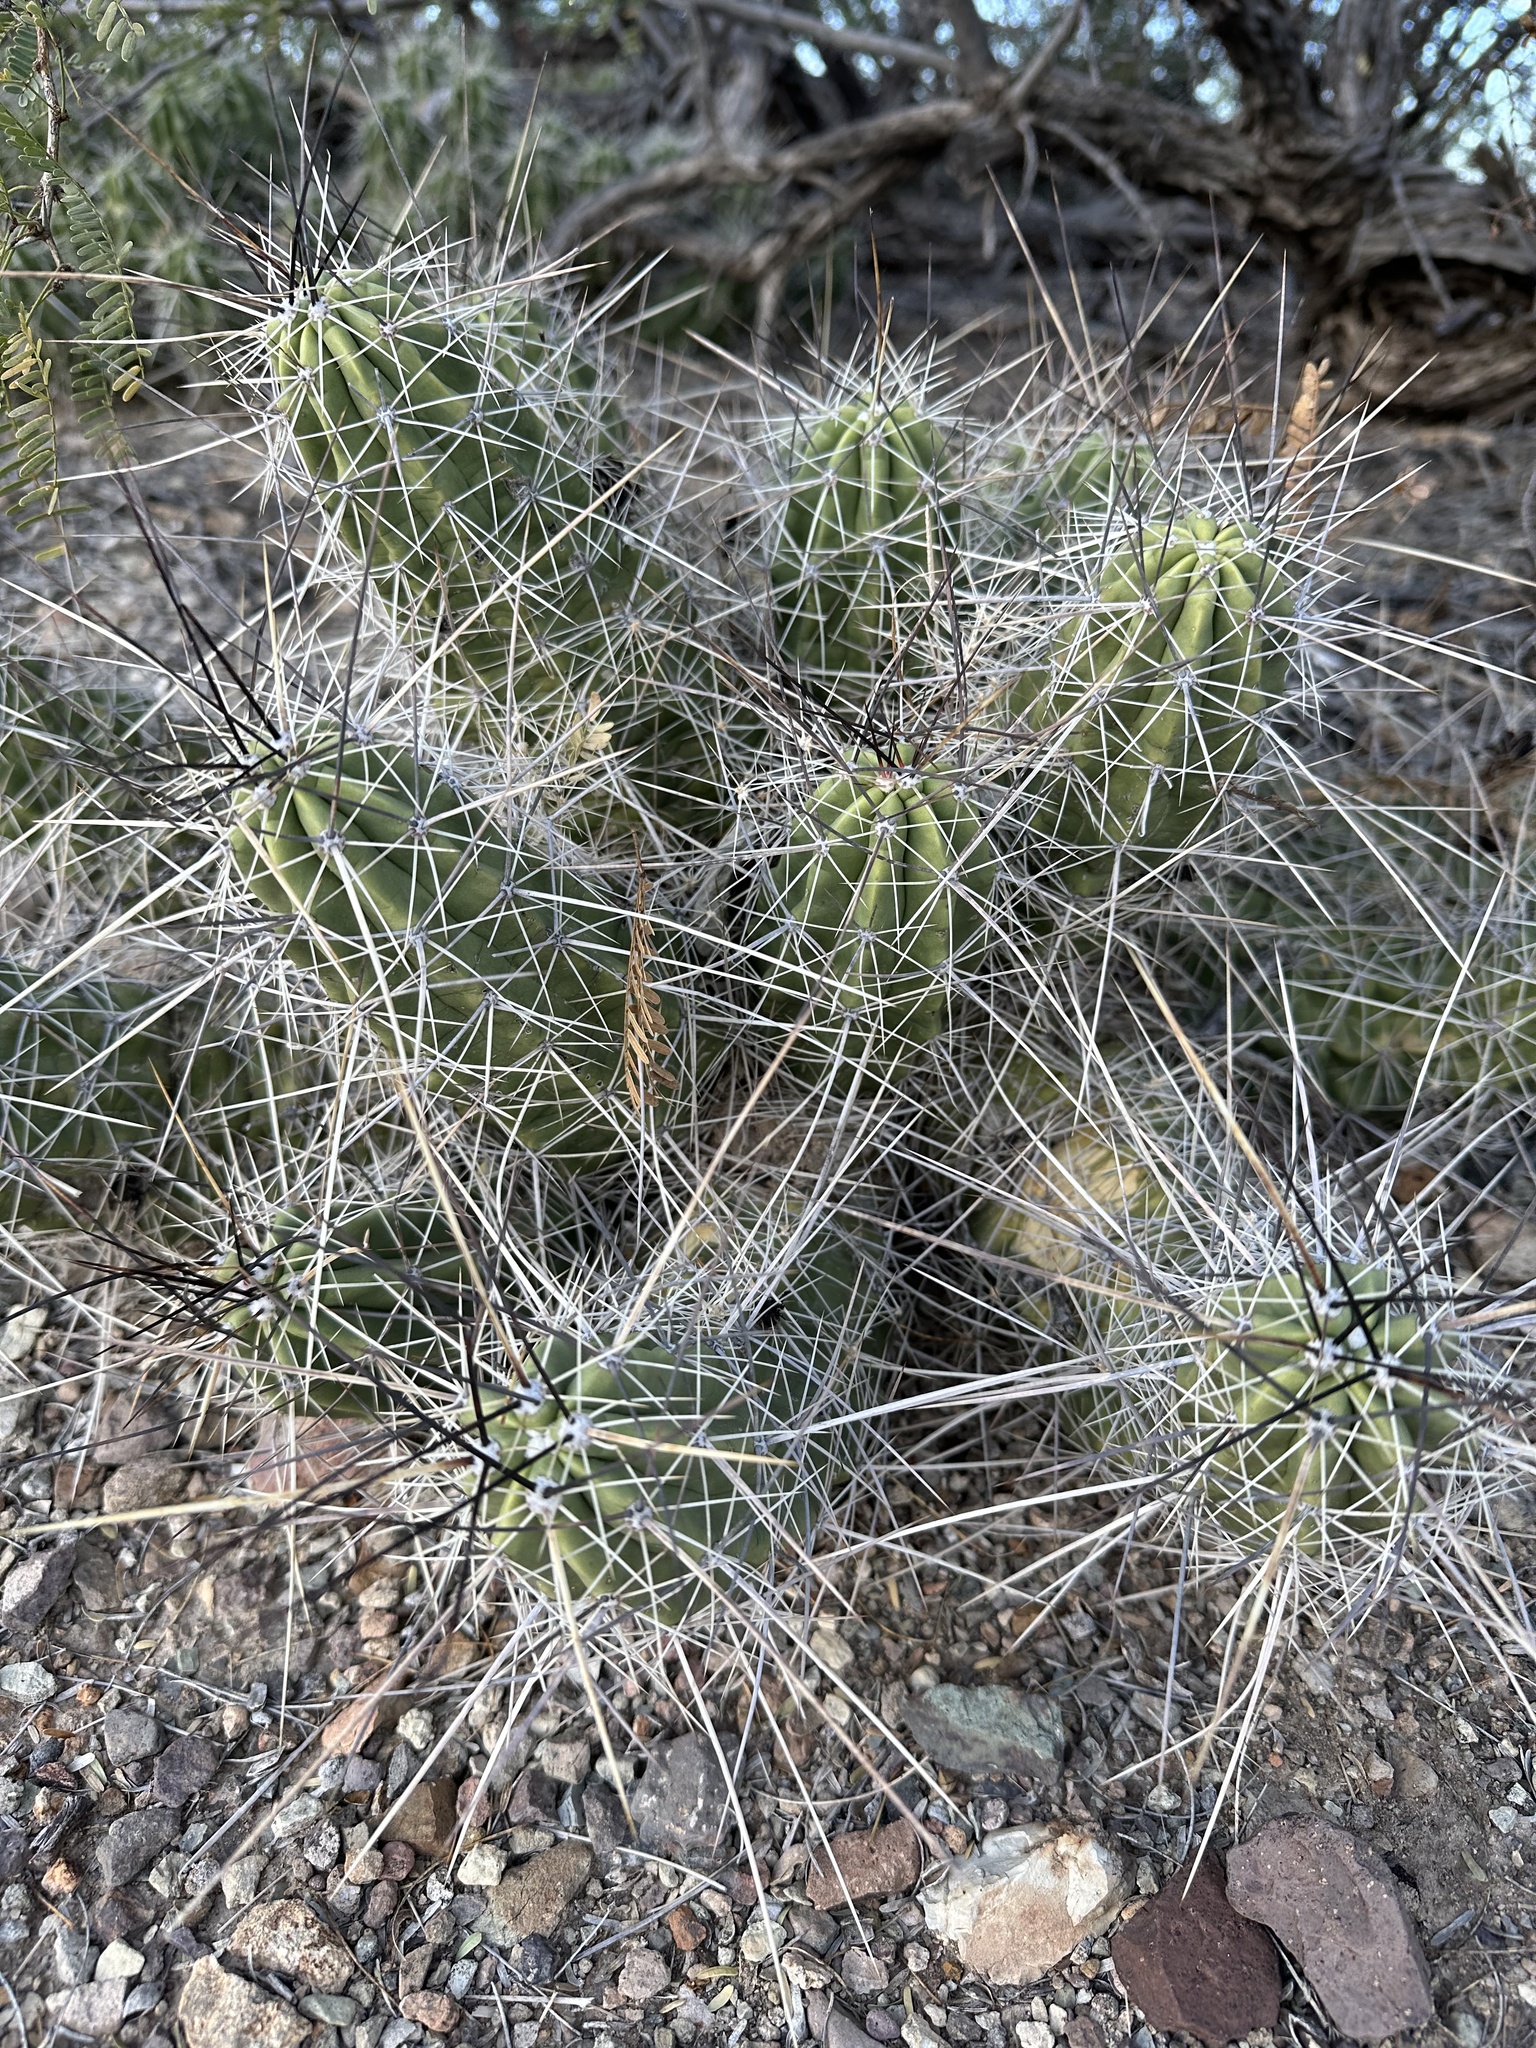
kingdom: Plantae
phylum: Tracheophyta
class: Magnoliopsida
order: Caryophyllales
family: Cactaceae
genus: Echinocereus
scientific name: Echinocereus enneacanthus
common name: Pitaya
